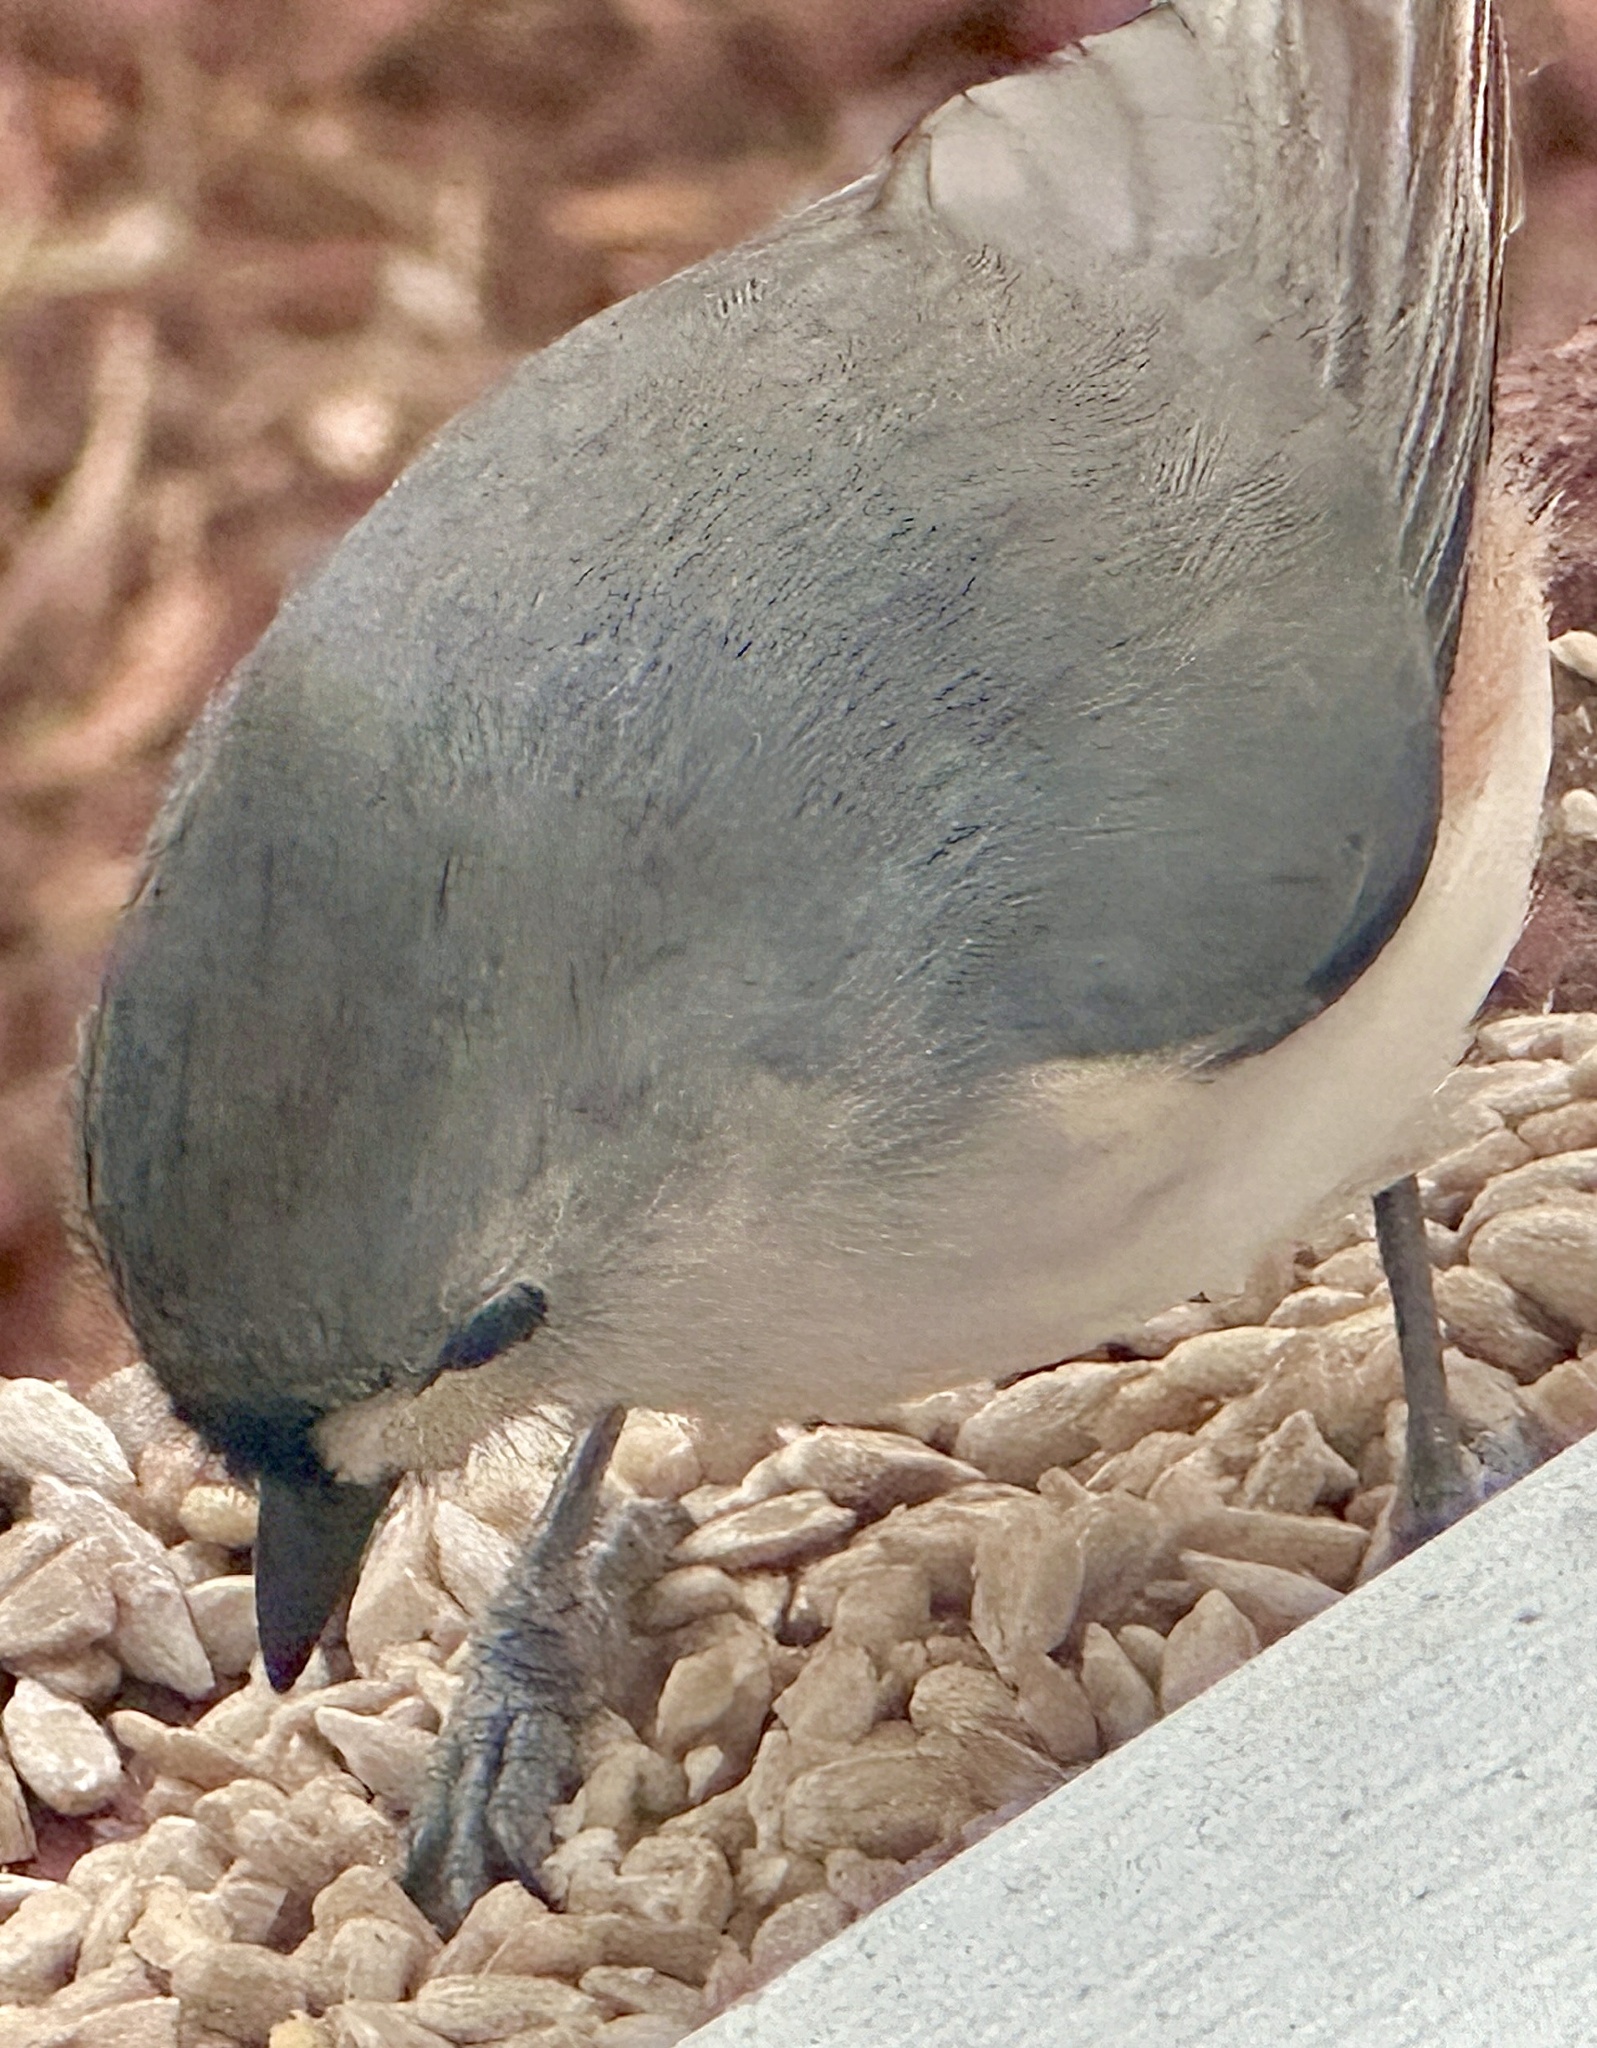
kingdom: Animalia
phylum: Chordata
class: Aves
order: Passeriformes
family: Paridae
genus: Baeolophus
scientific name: Baeolophus bicolor
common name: Tufted titmouse
